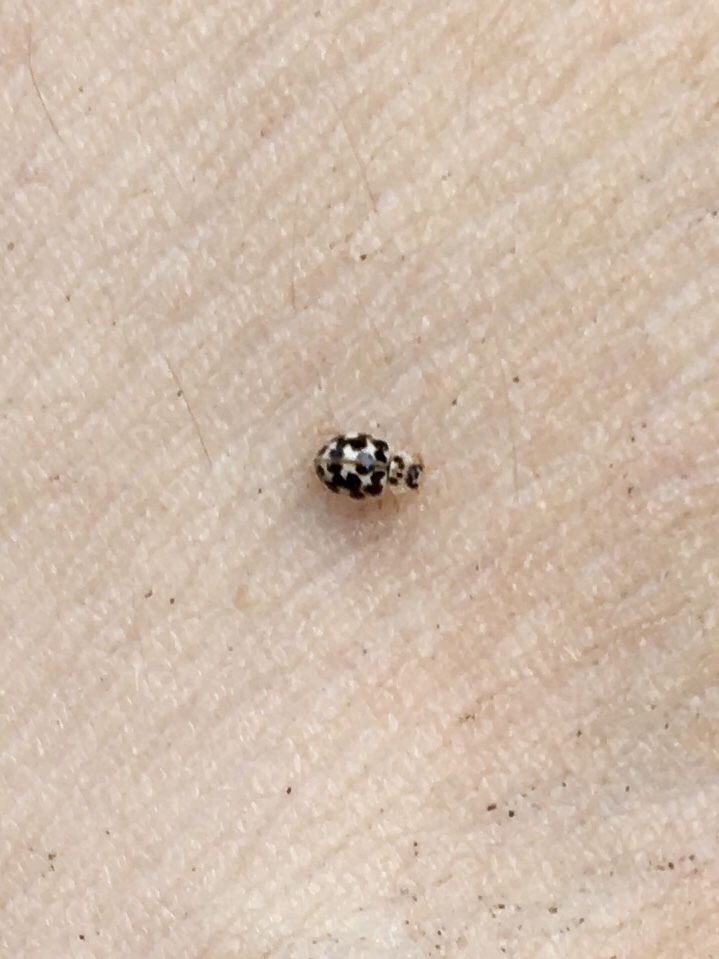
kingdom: Animalia
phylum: Arthropoda
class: Insecta
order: Coleoptera
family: Coccinellidae
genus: Psyllobora
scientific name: Psyllobora vigintimaculata
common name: Ladybird beetle
